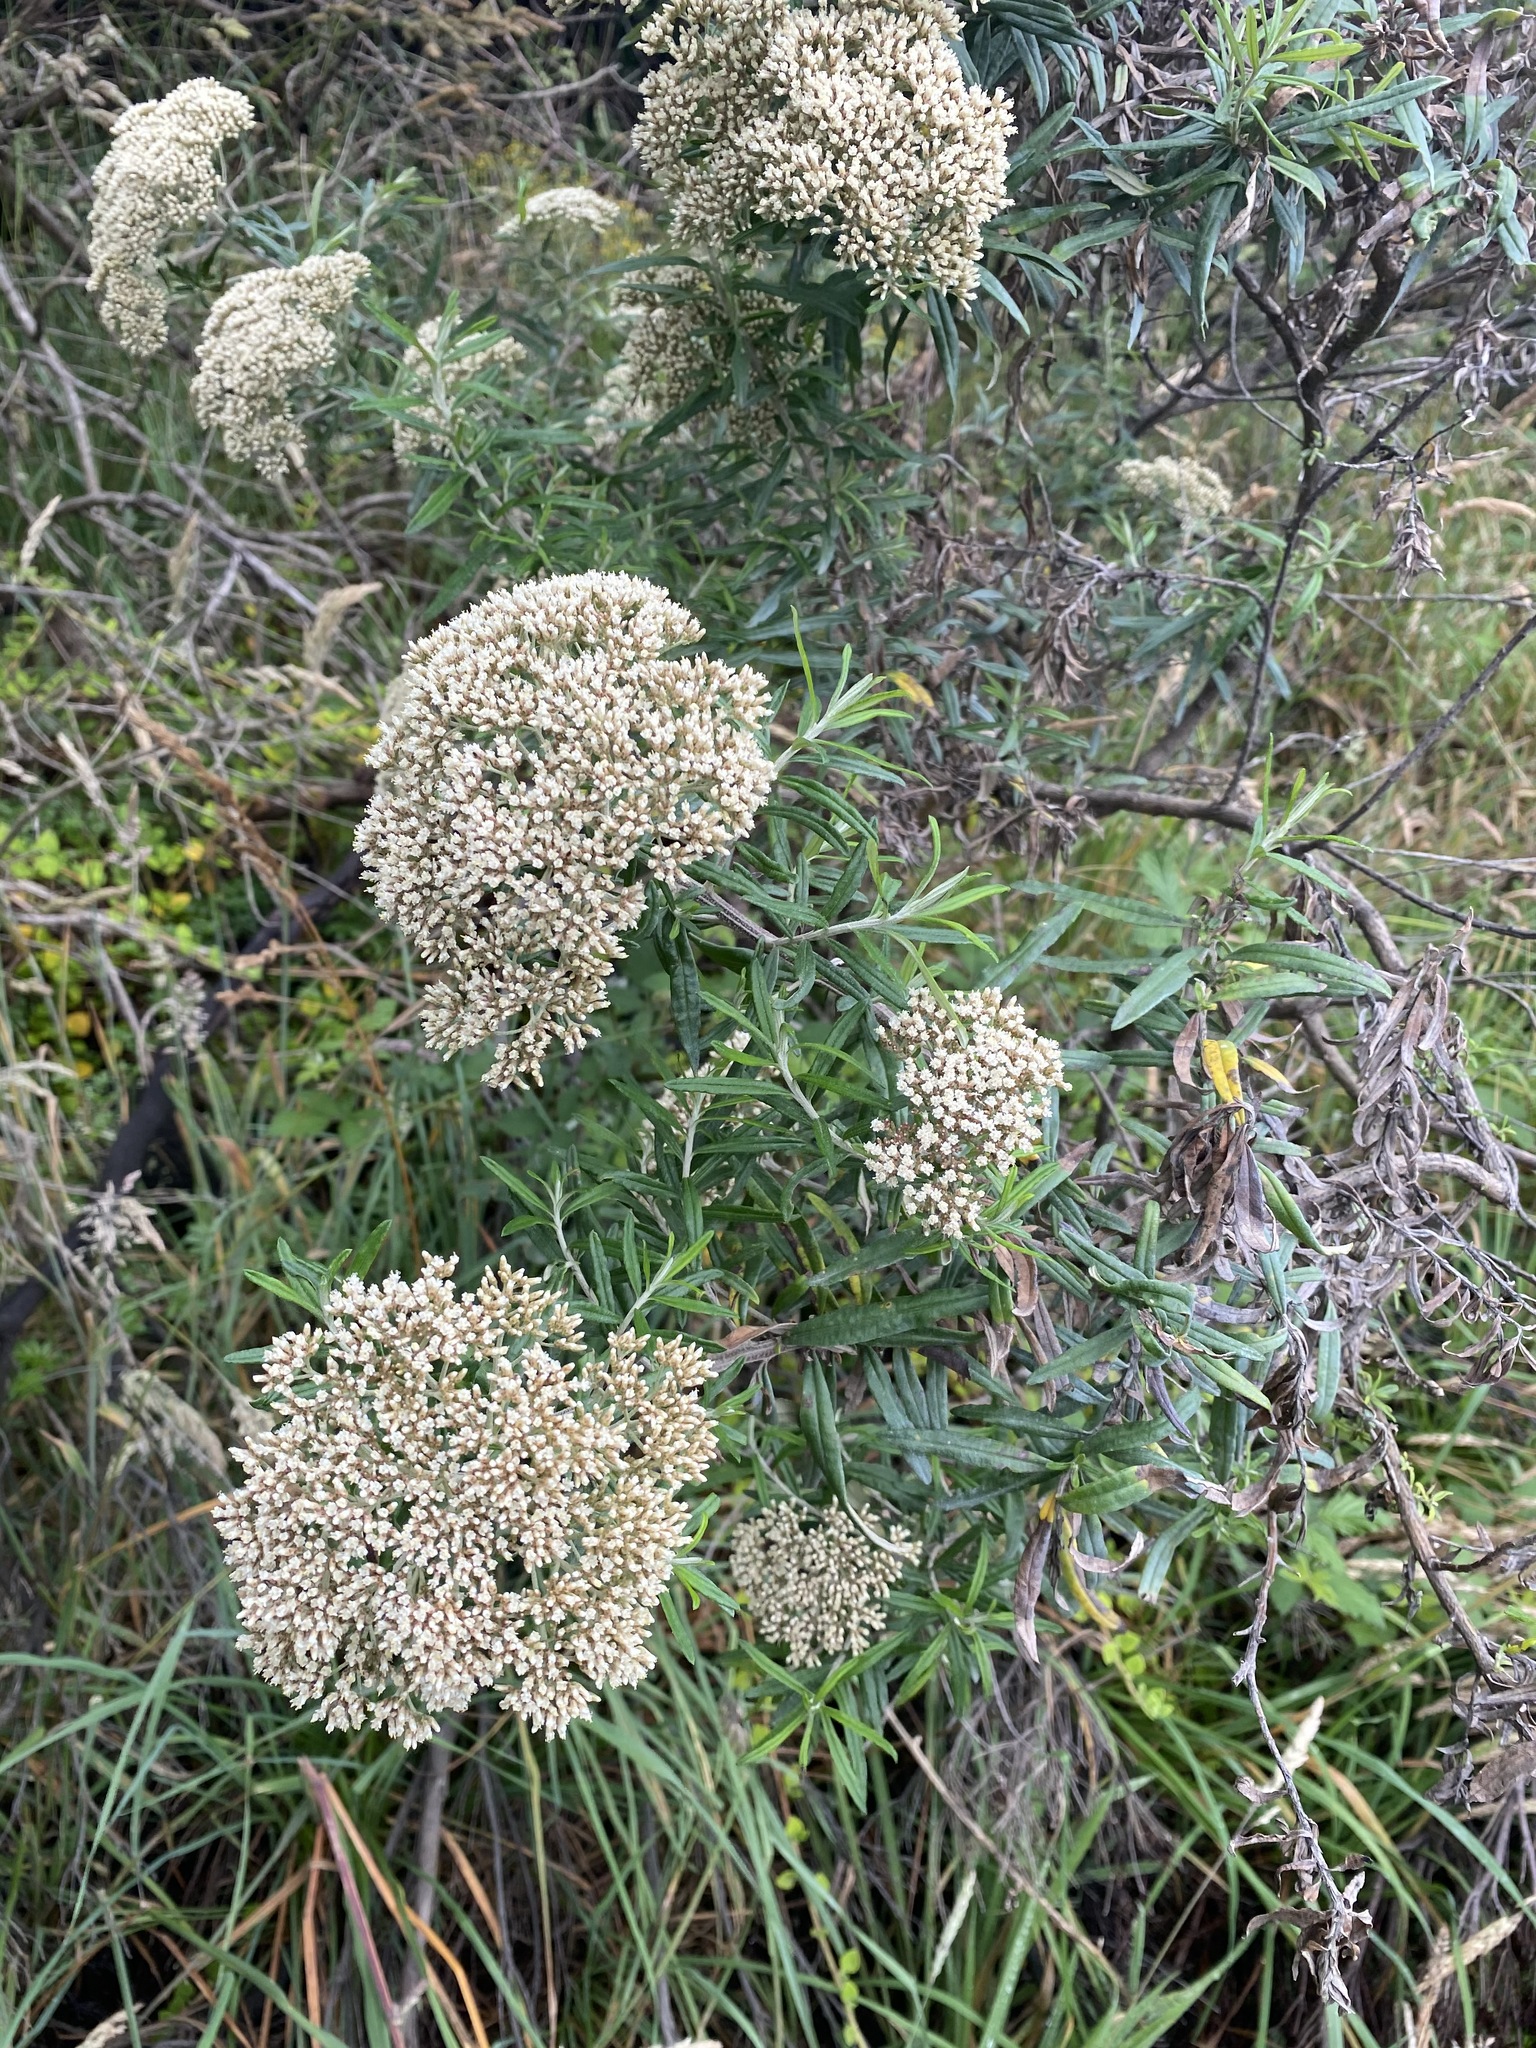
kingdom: Plantae
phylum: Tracheophyta
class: Magnoliopsida
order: Asterales
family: Asteraceae
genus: Ozothamnus
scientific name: Ozothamnus ferrugineus
